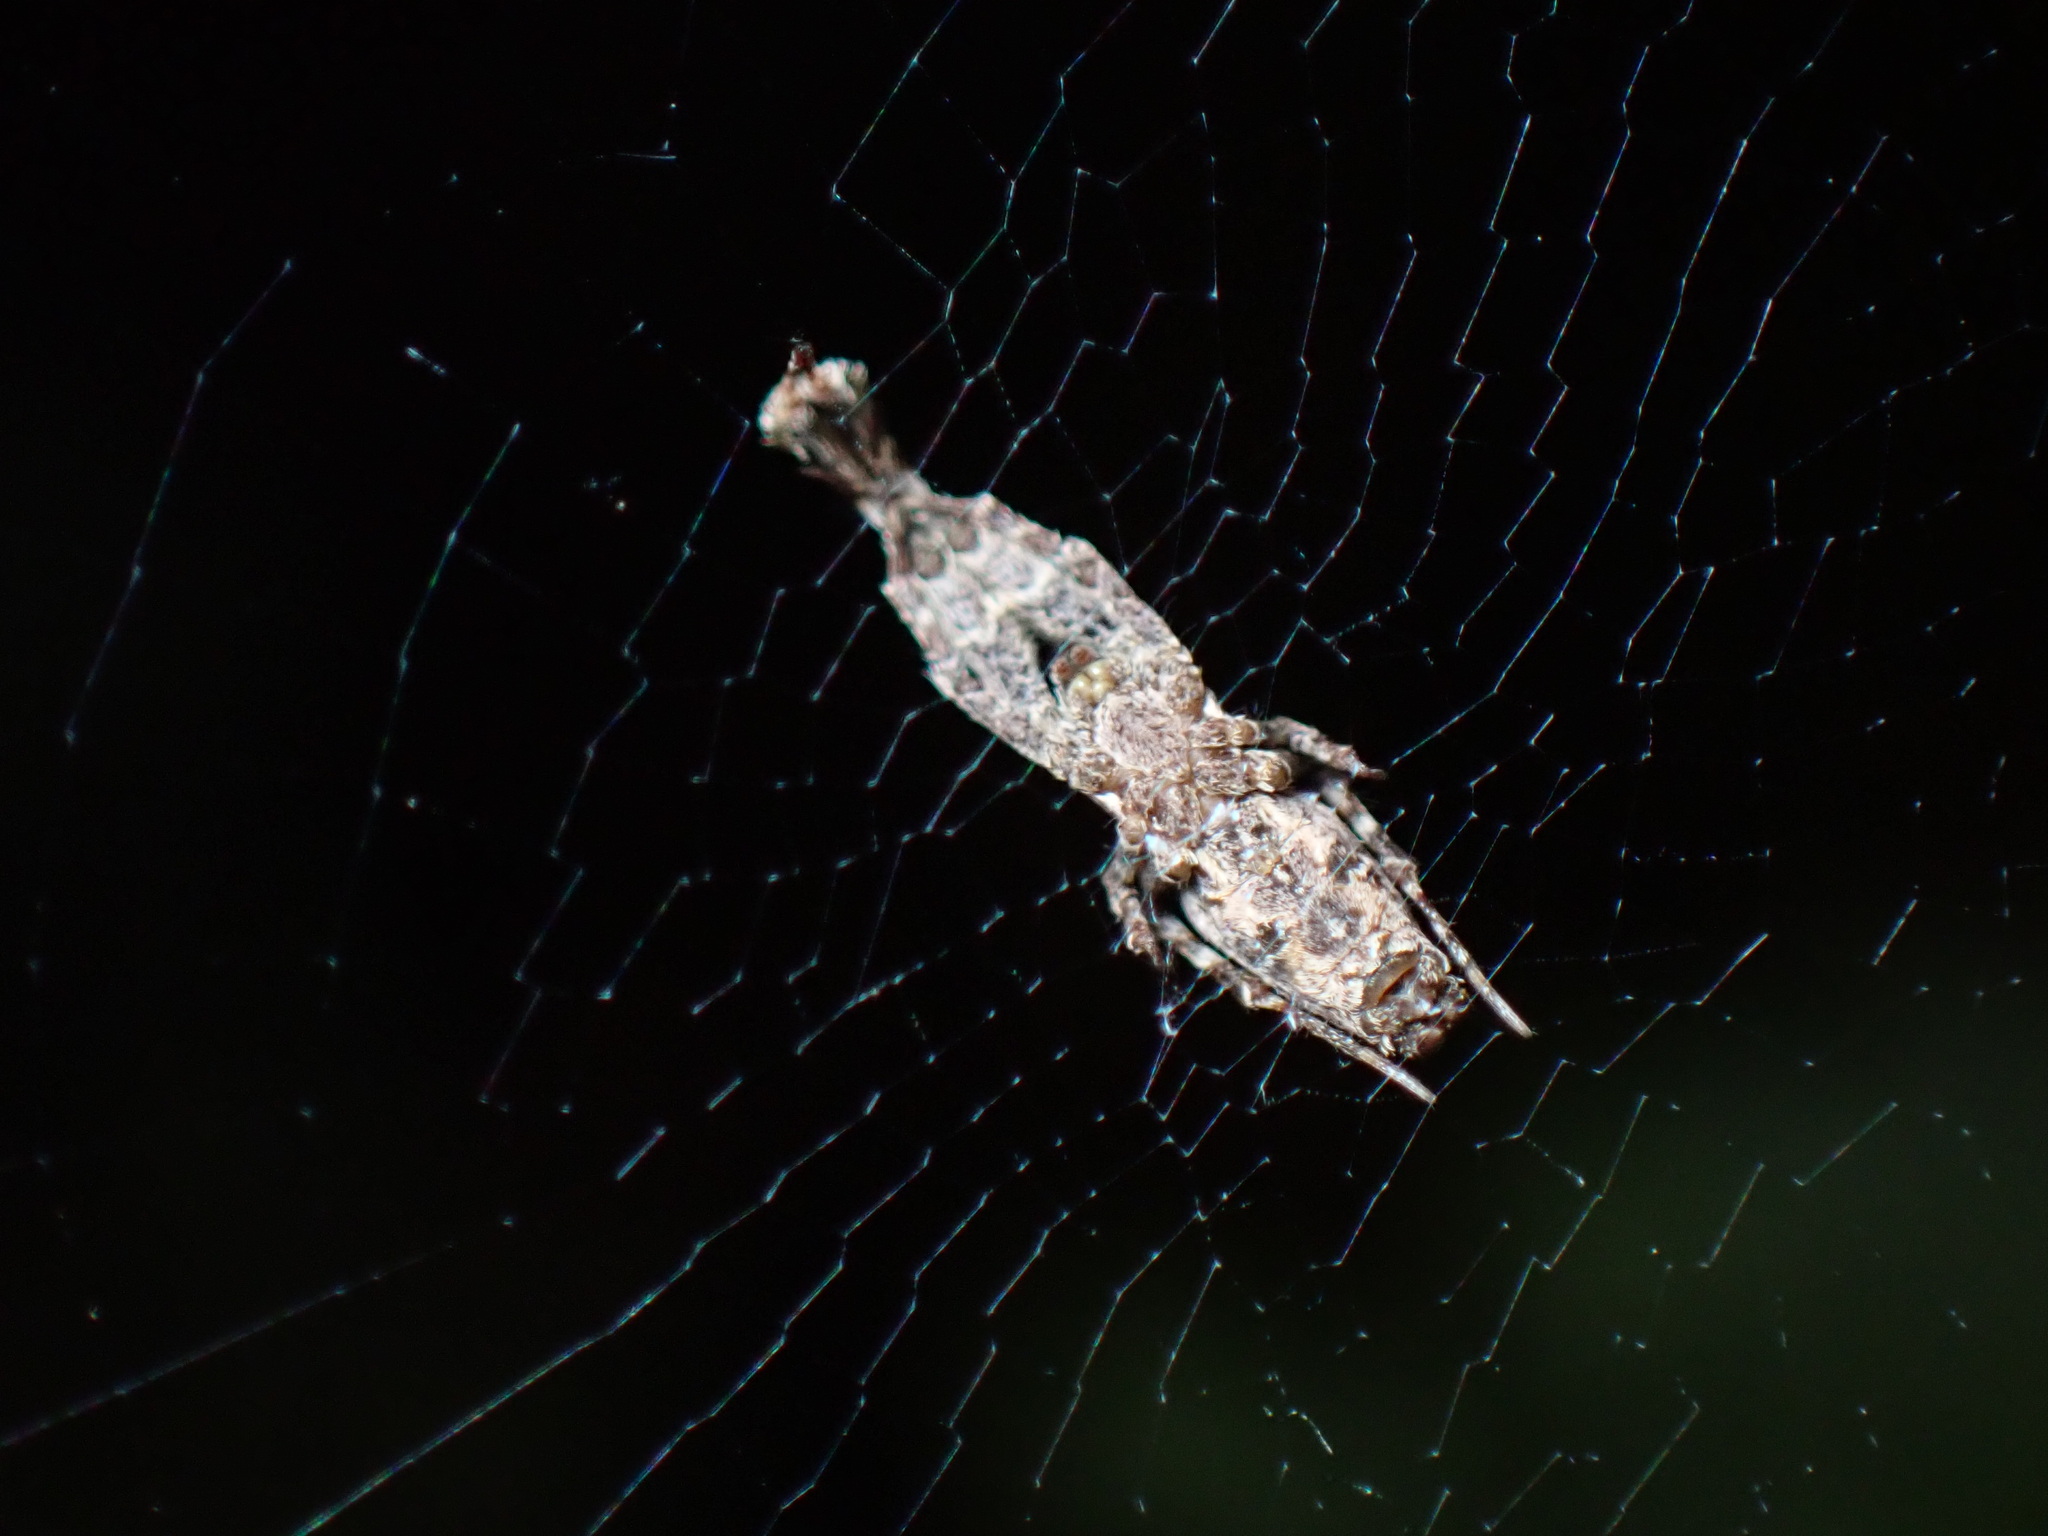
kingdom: Animalia
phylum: Arthropoda
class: Arachnida
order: Araneae
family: Uloboridae
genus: Uloborus
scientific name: Uloborus plumipes
